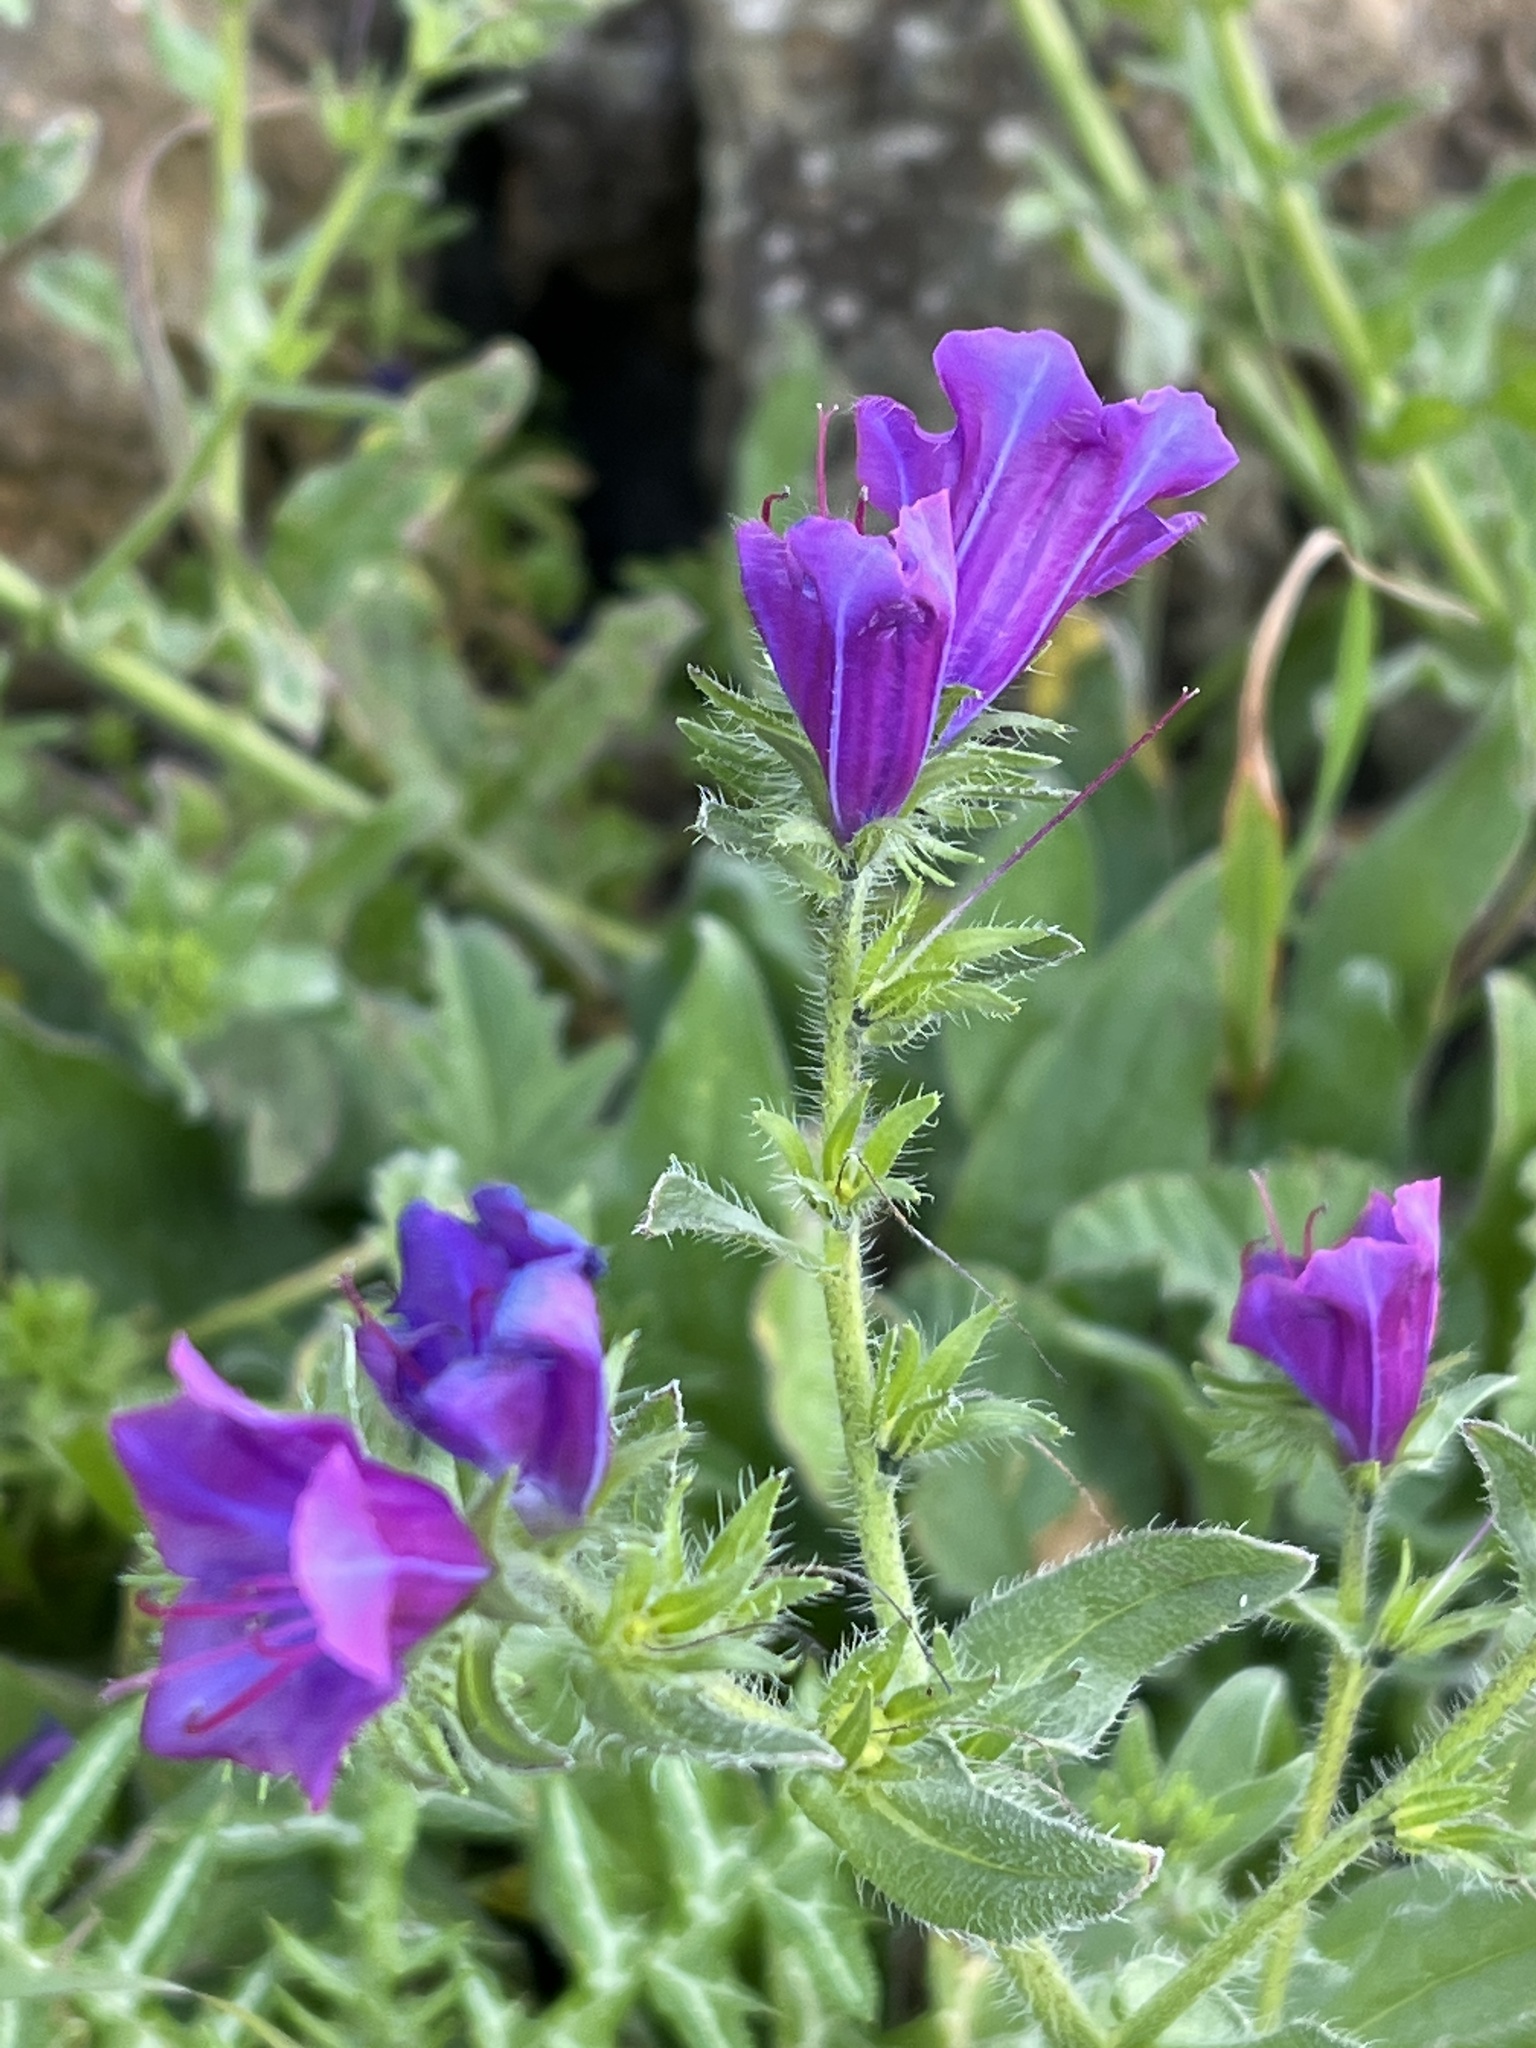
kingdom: Plantae
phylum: Tracheophyta
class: Magnoliopsida
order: Boraginales
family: Boraginaceae
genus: Echium
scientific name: Echium plantagineum
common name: Purple viper's-bugloss
